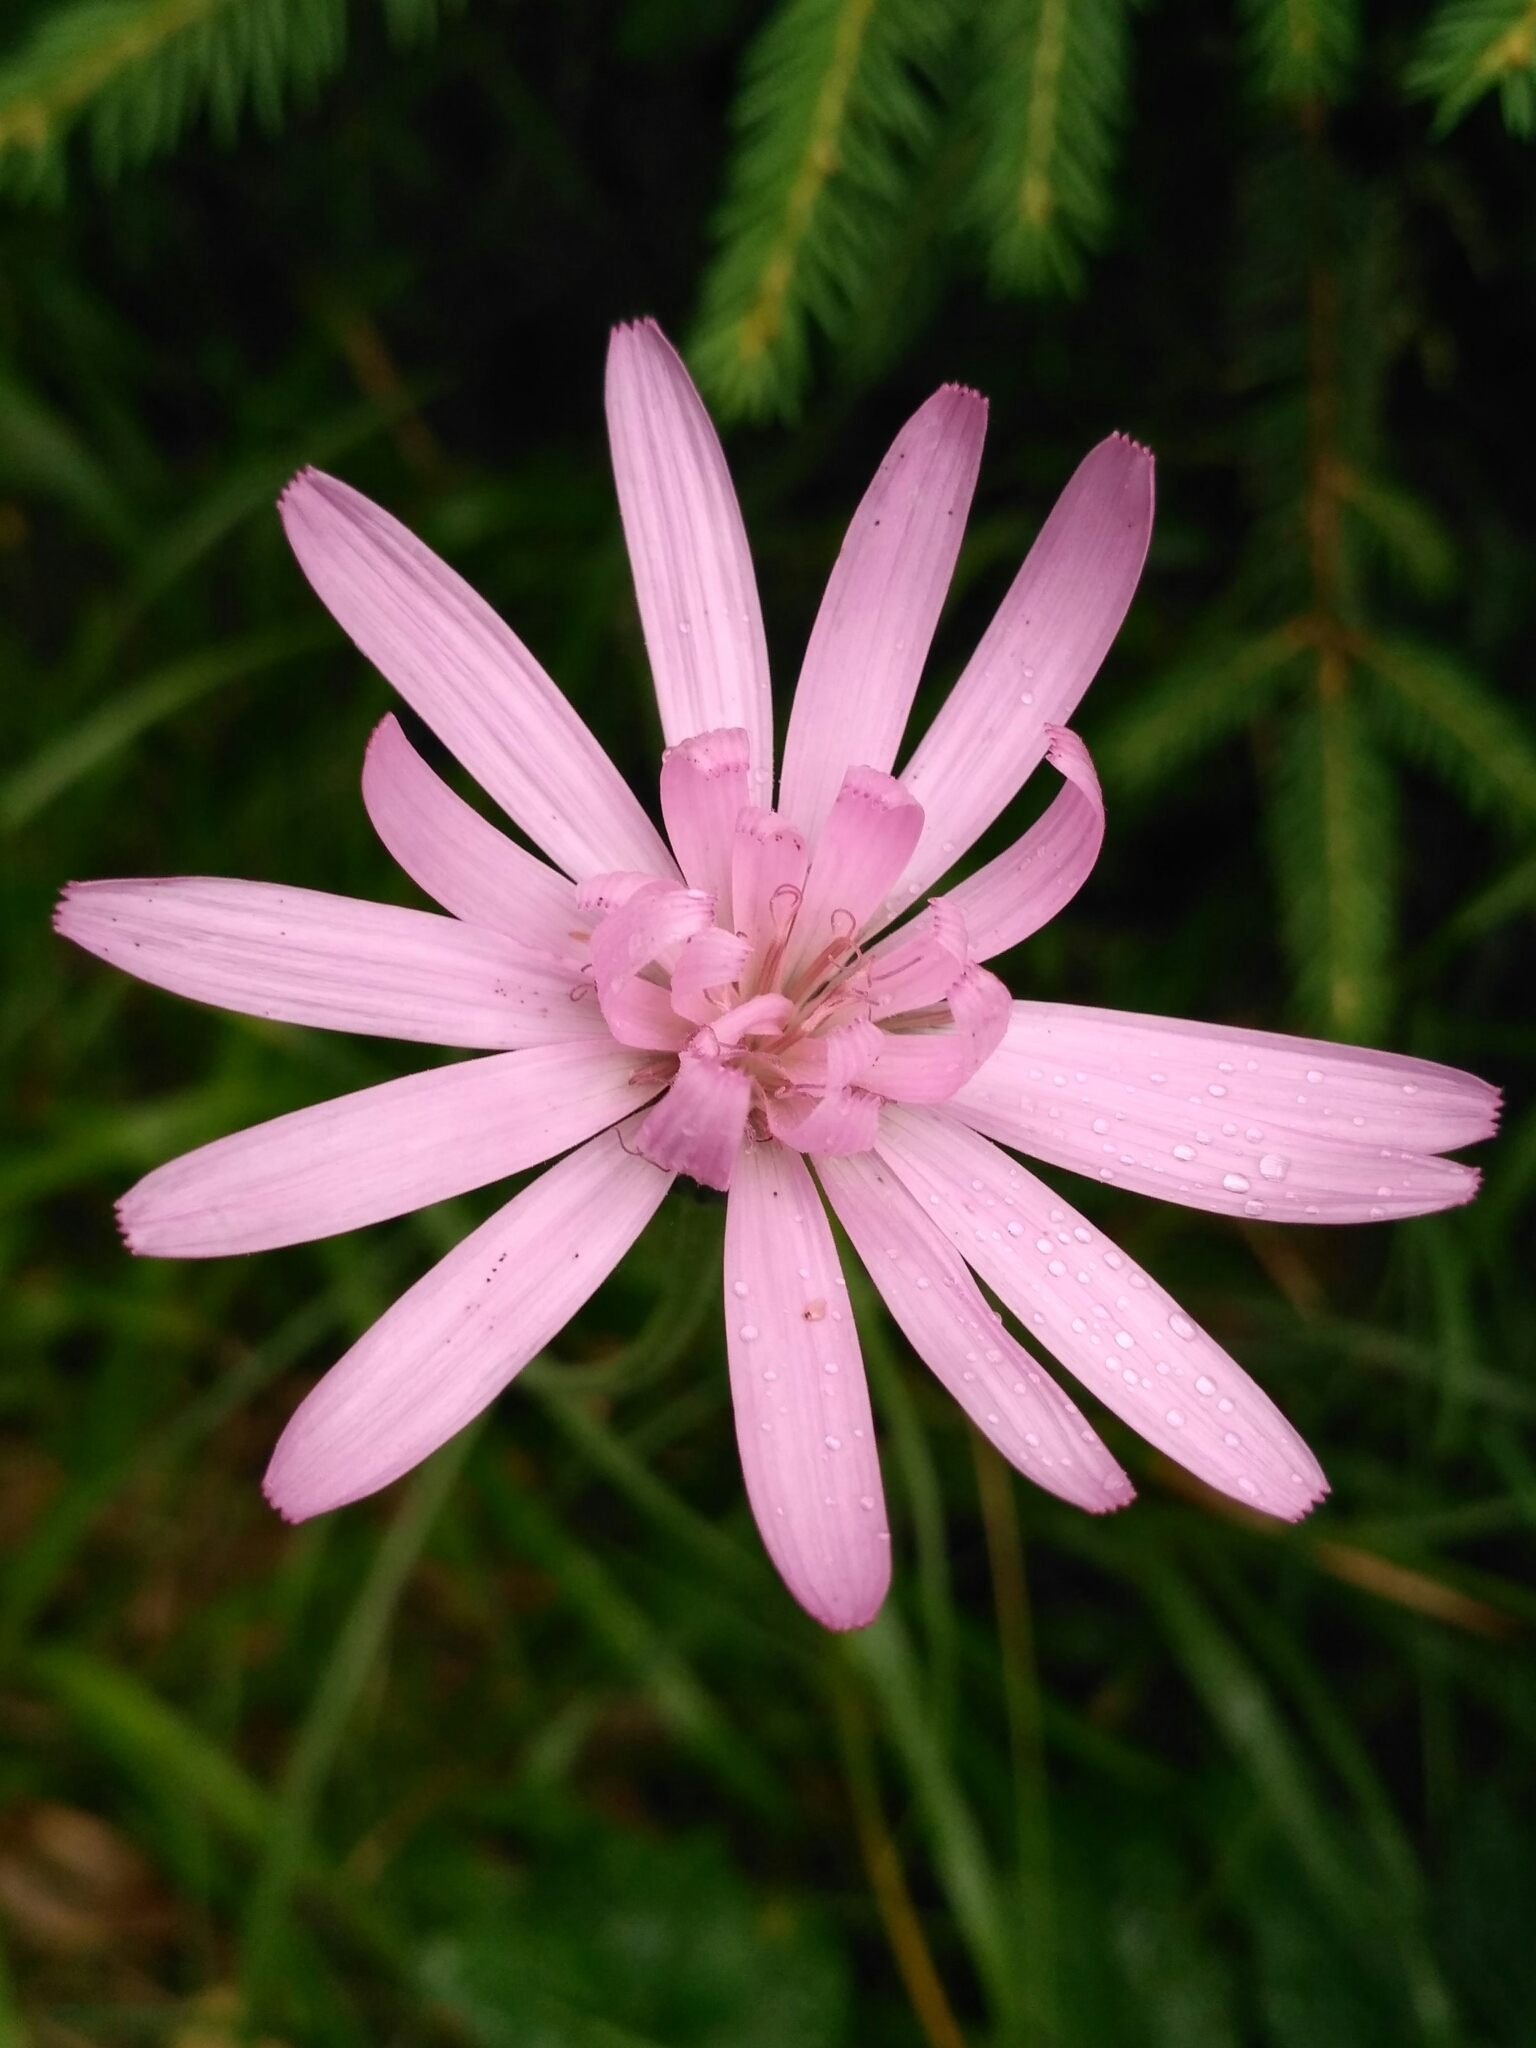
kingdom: Plantae
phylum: Tracheophyta
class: Magnoliopsida
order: Asterales
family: Asteraceae
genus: Scorzonera
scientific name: Scorzonera rosea
